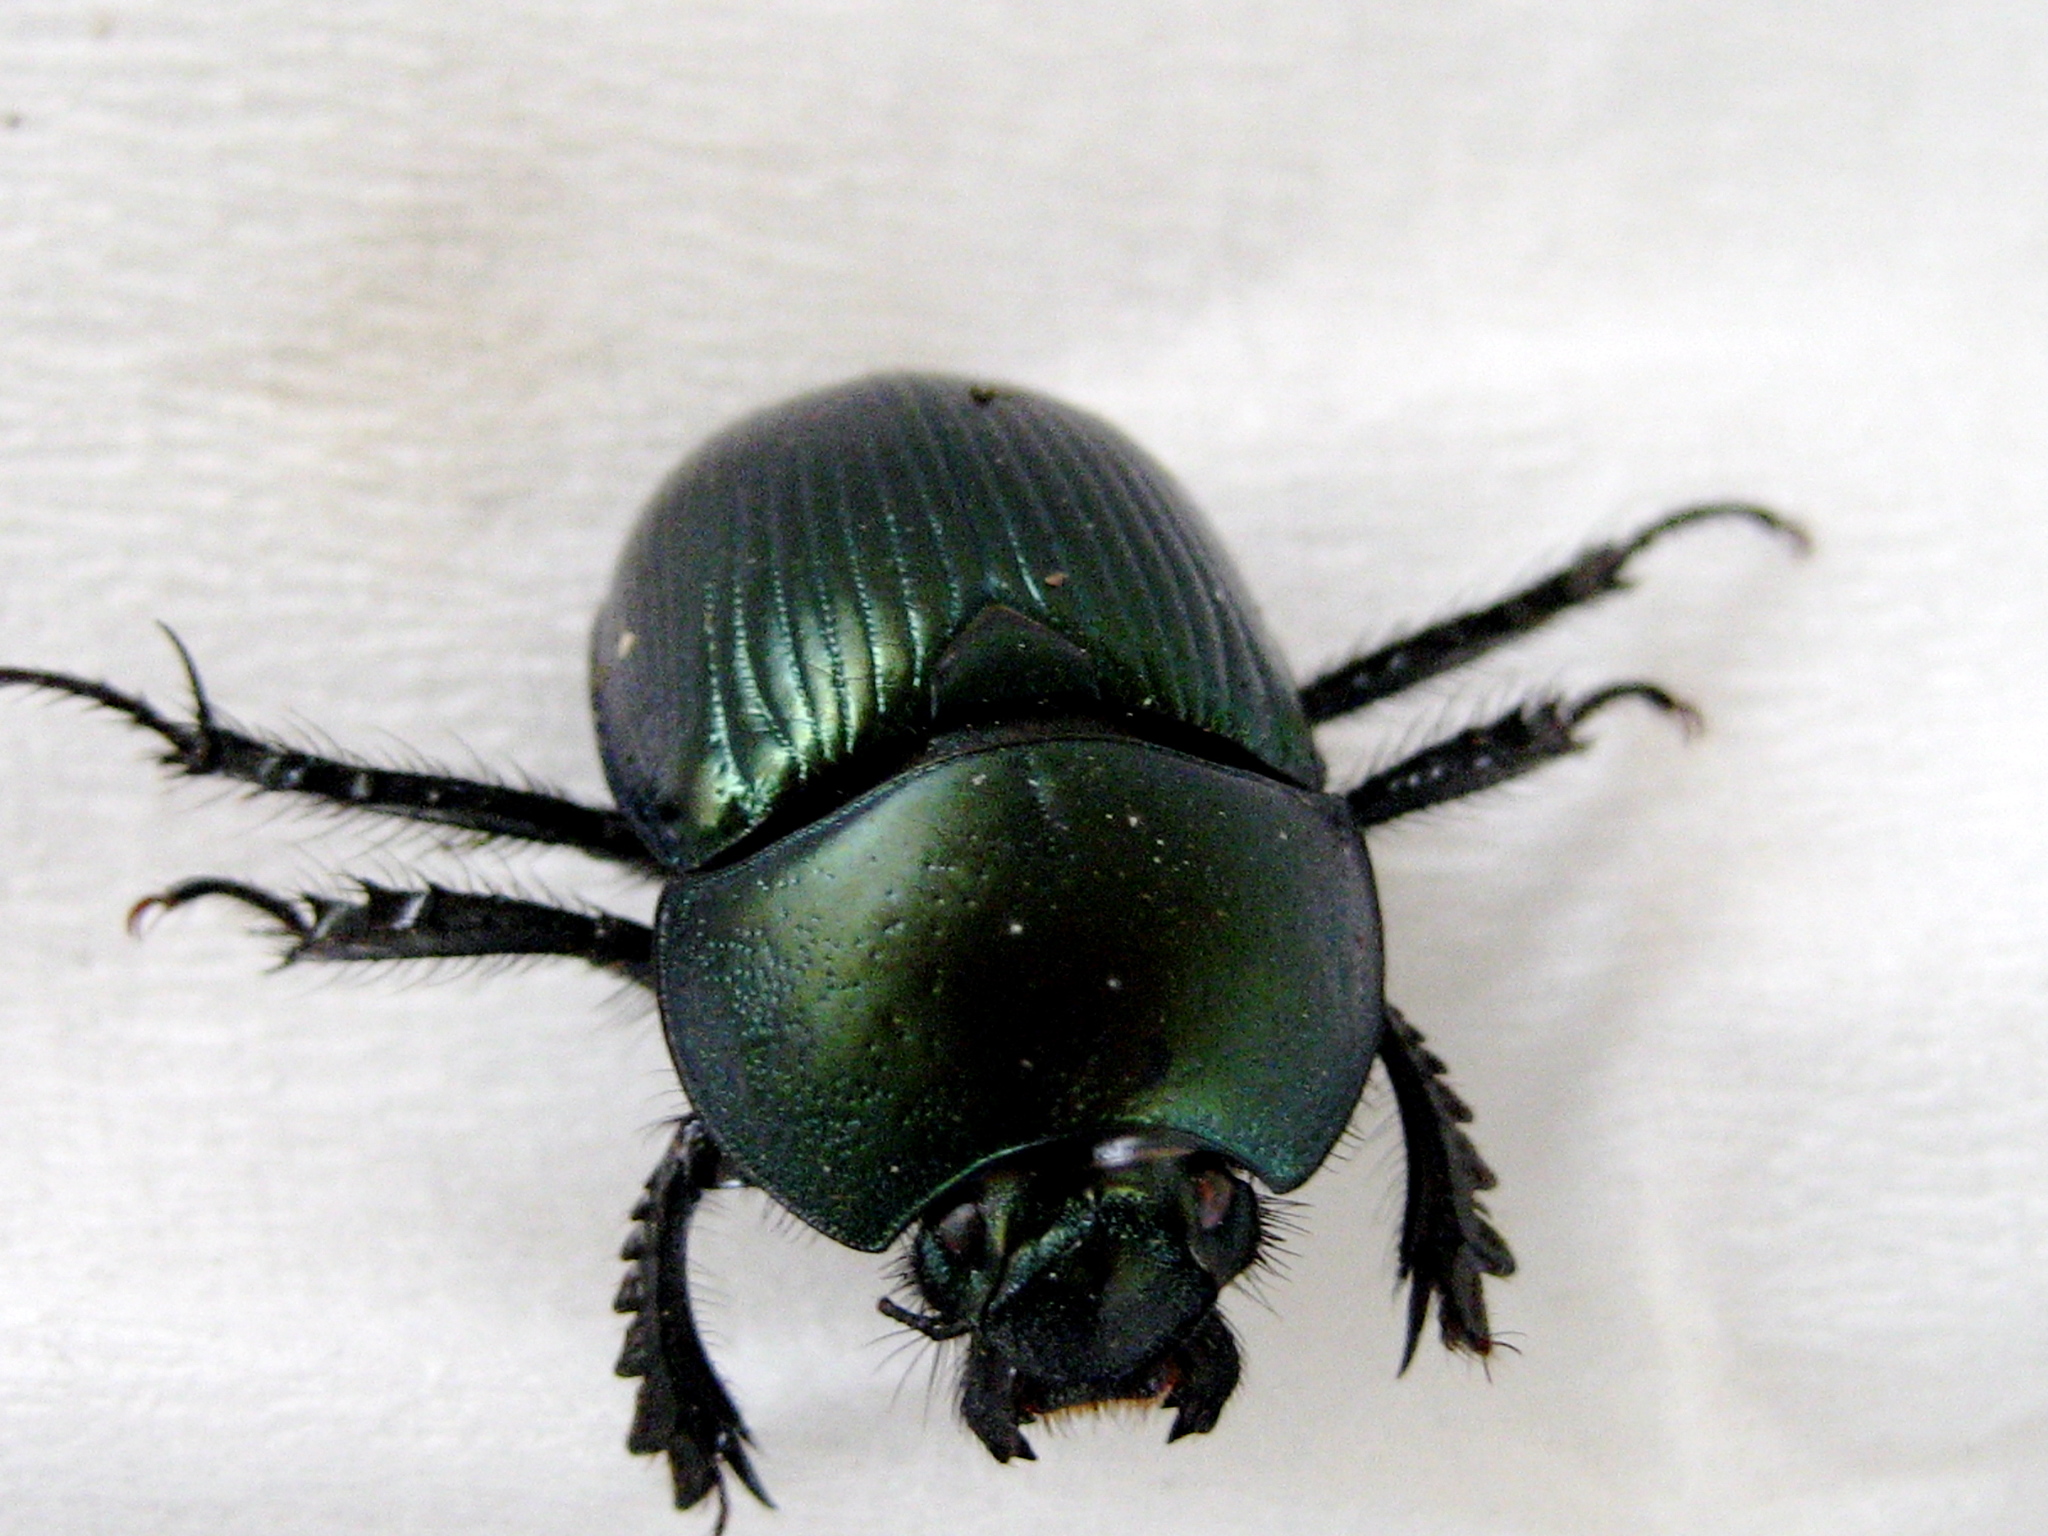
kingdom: Animalia
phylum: Arthropoda
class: Insecta
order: Coleoptera
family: Geotrupidae
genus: Geotrupes
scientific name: Geotrupes splendidus
